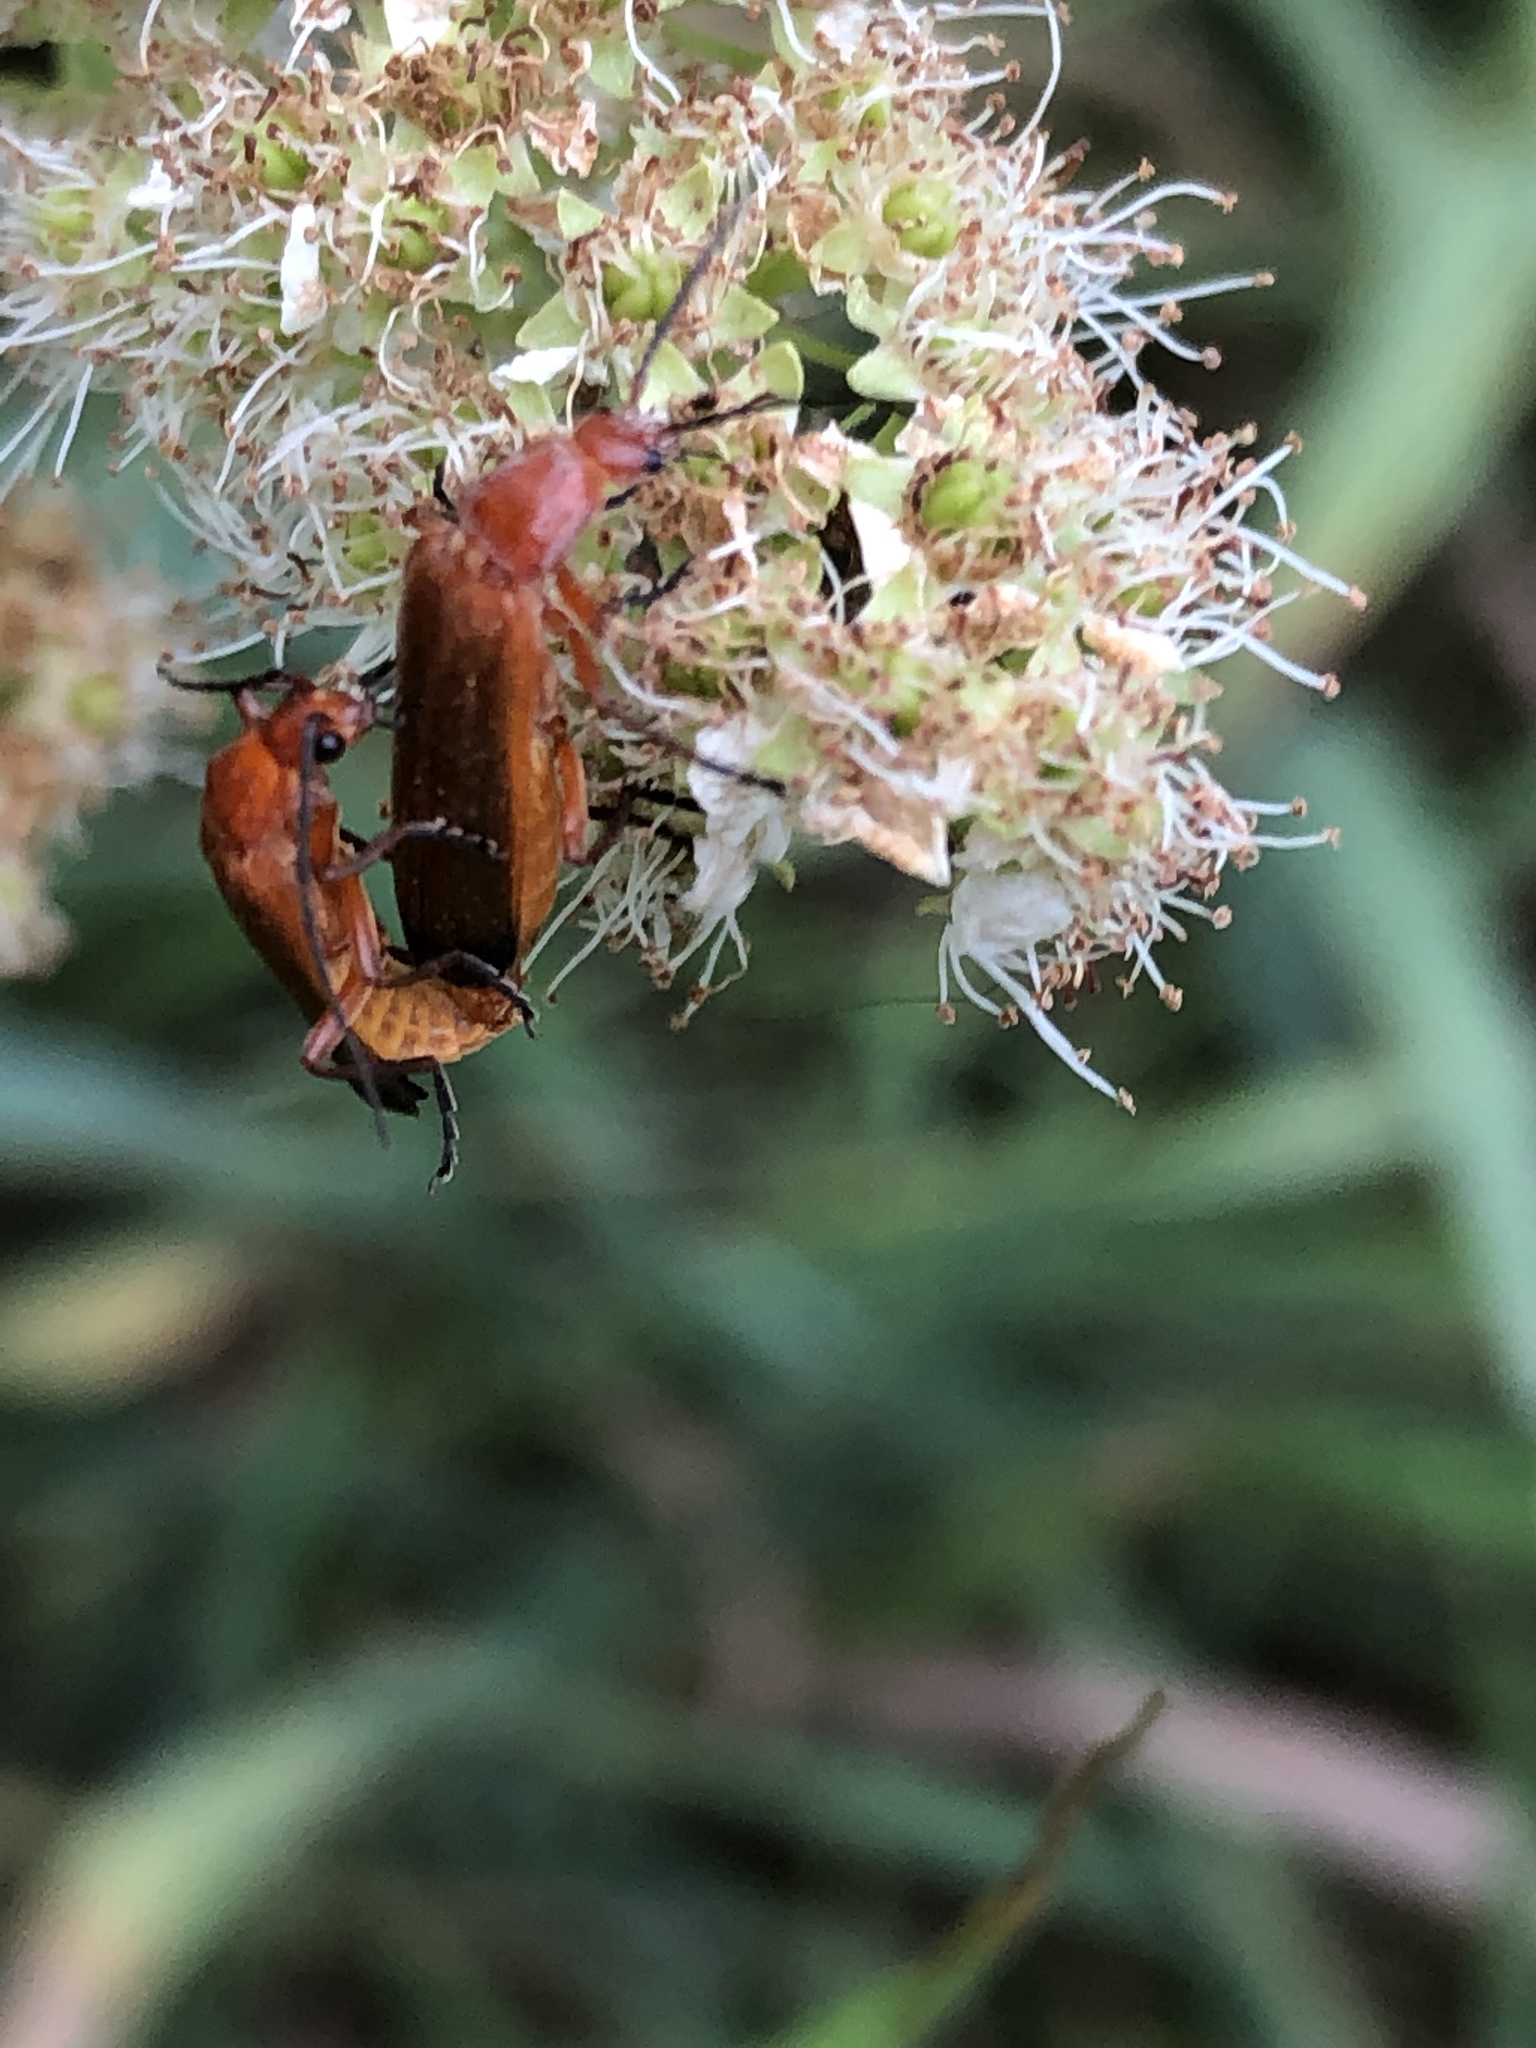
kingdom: Animalia
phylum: Arthropoda
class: Insecta
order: Coleoptera
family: Cantharidae
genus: Rhagonycha
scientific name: Rhagonycha fulva
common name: Common red soldier beetle
